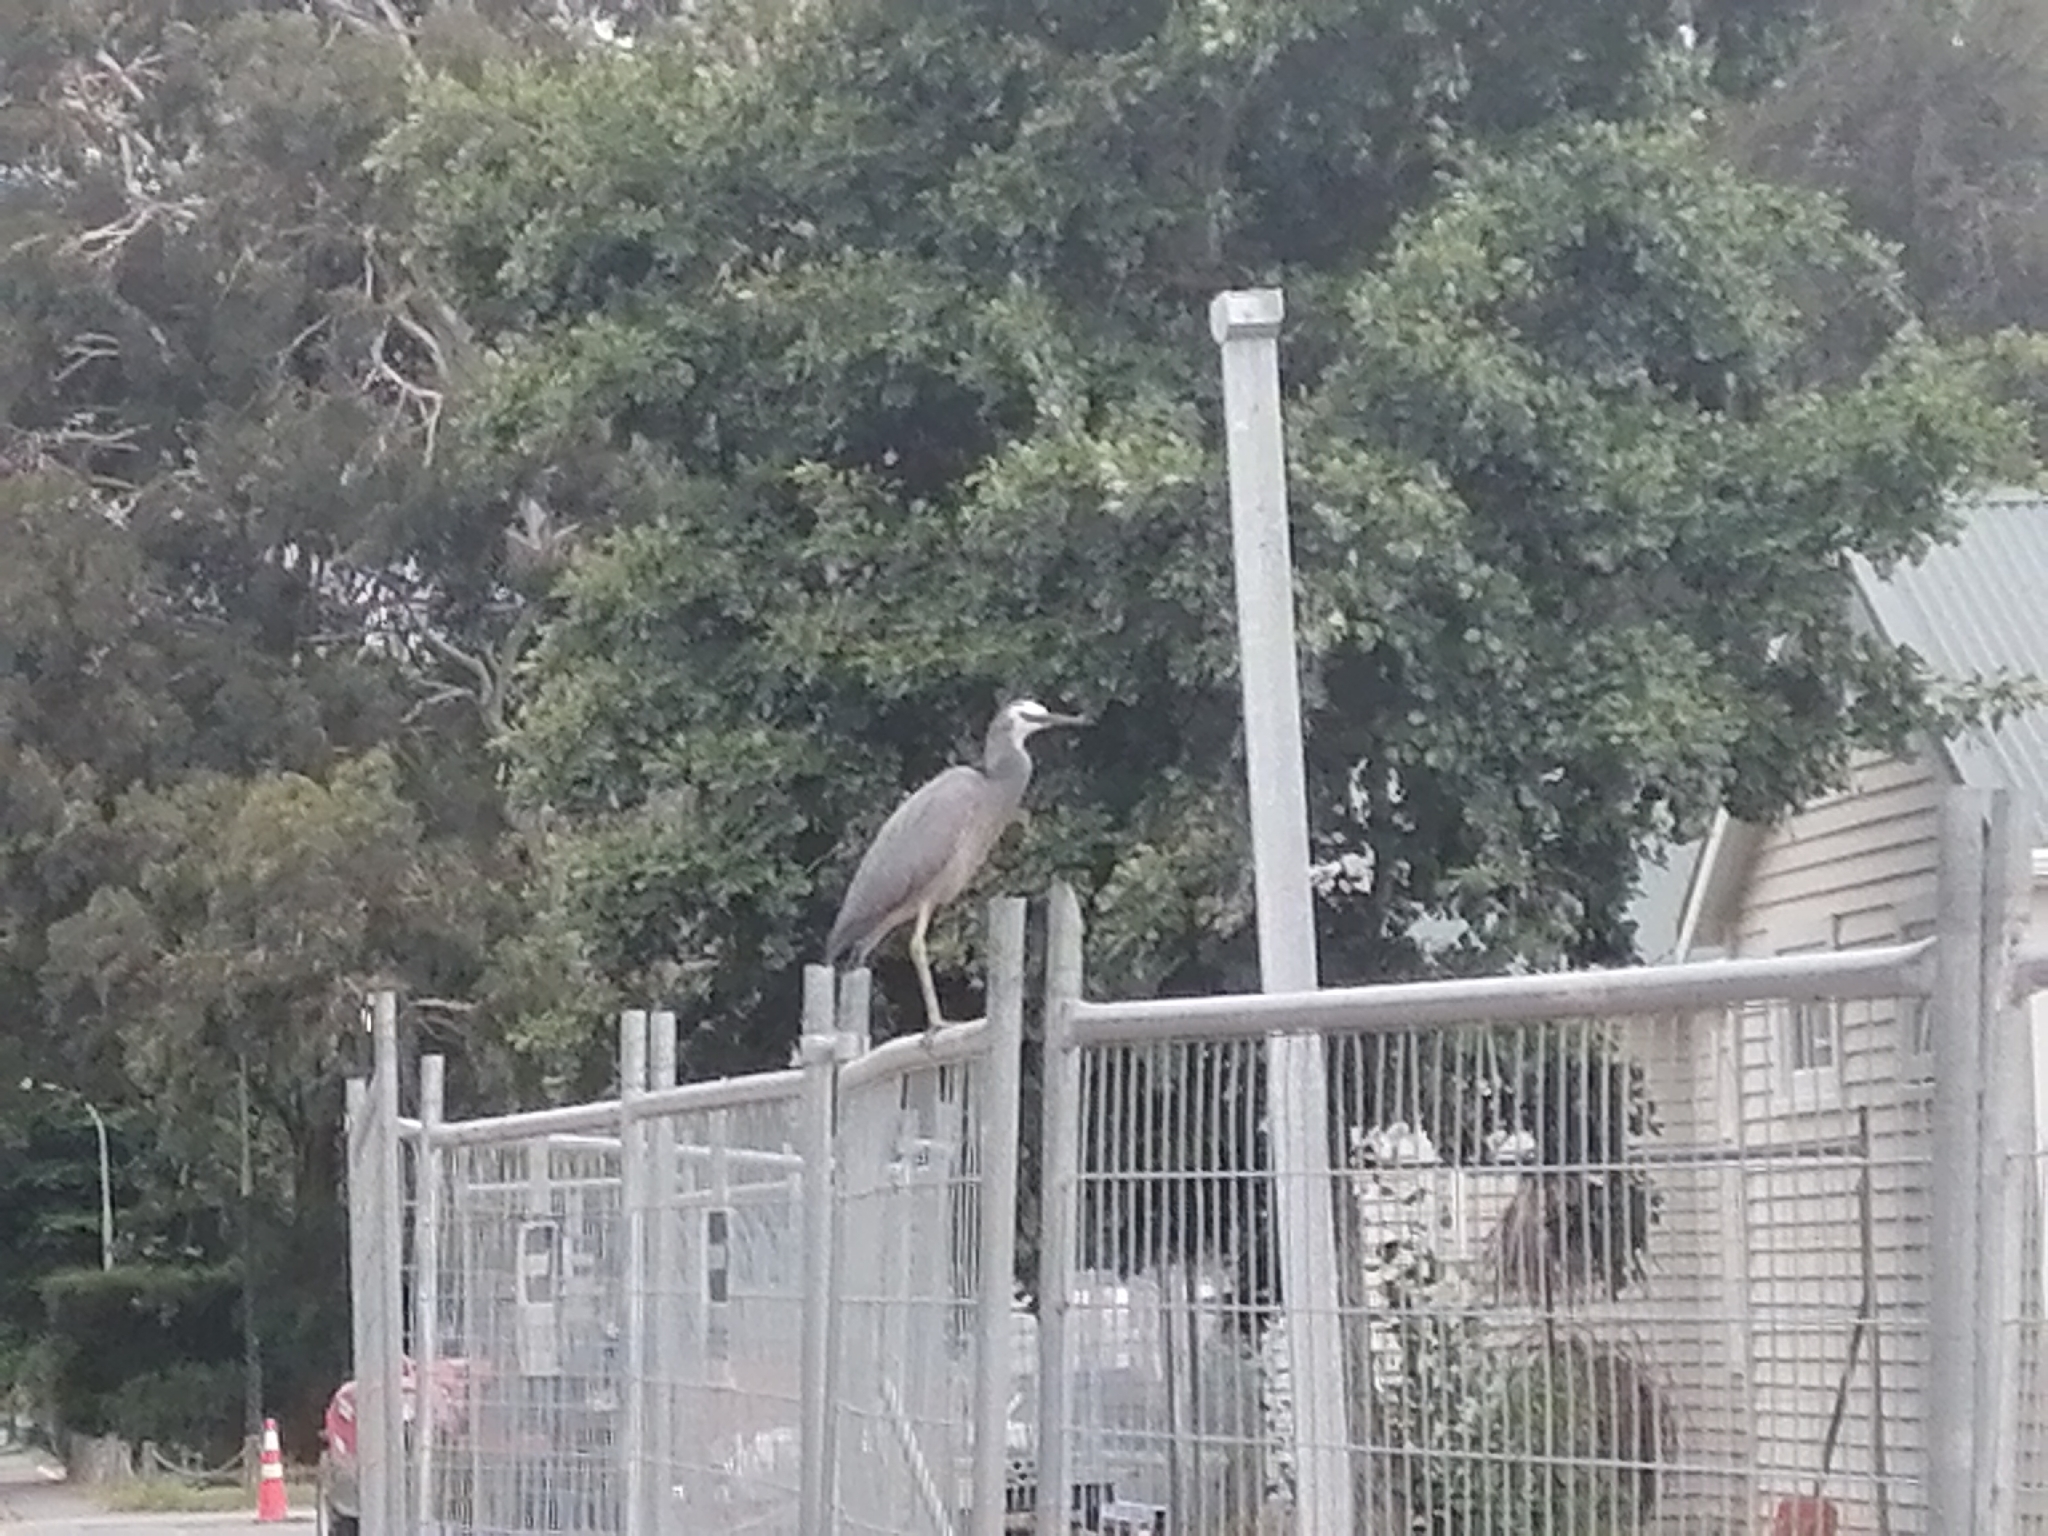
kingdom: Animalia
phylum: Chordata
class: Aves
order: Pelecaniformes
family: Ardeidae
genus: Egretta
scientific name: Egretta novaehollandiae
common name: White-faced heron
